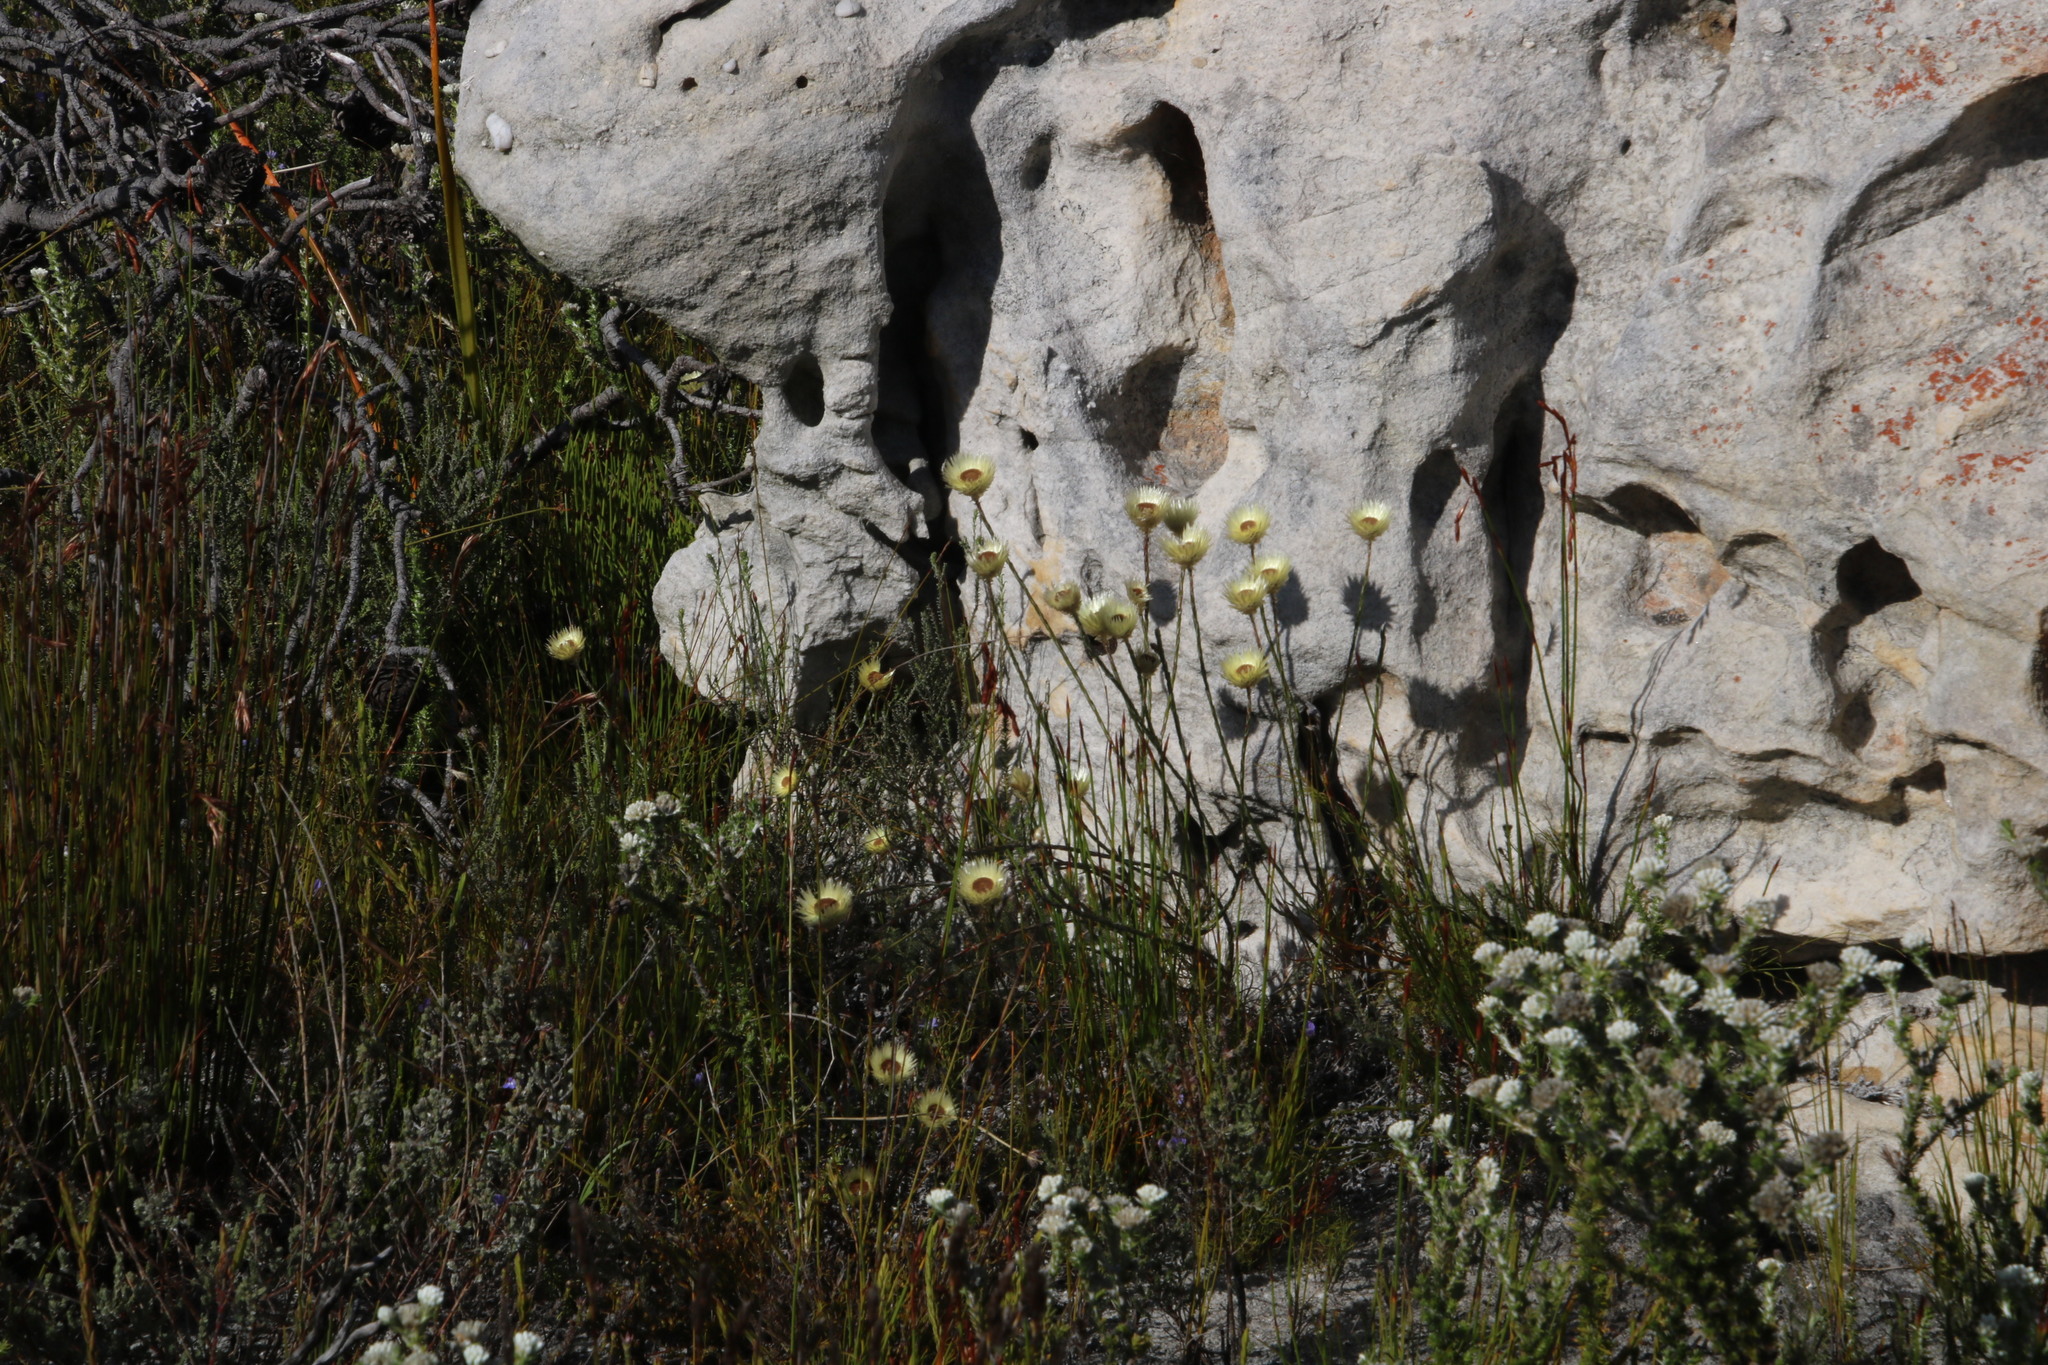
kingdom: Plantae
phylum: Tracheophyta
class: Magnoliopsida
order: Asterales
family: Asteraceae
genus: Edmondia
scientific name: Edmondia sesamoides
